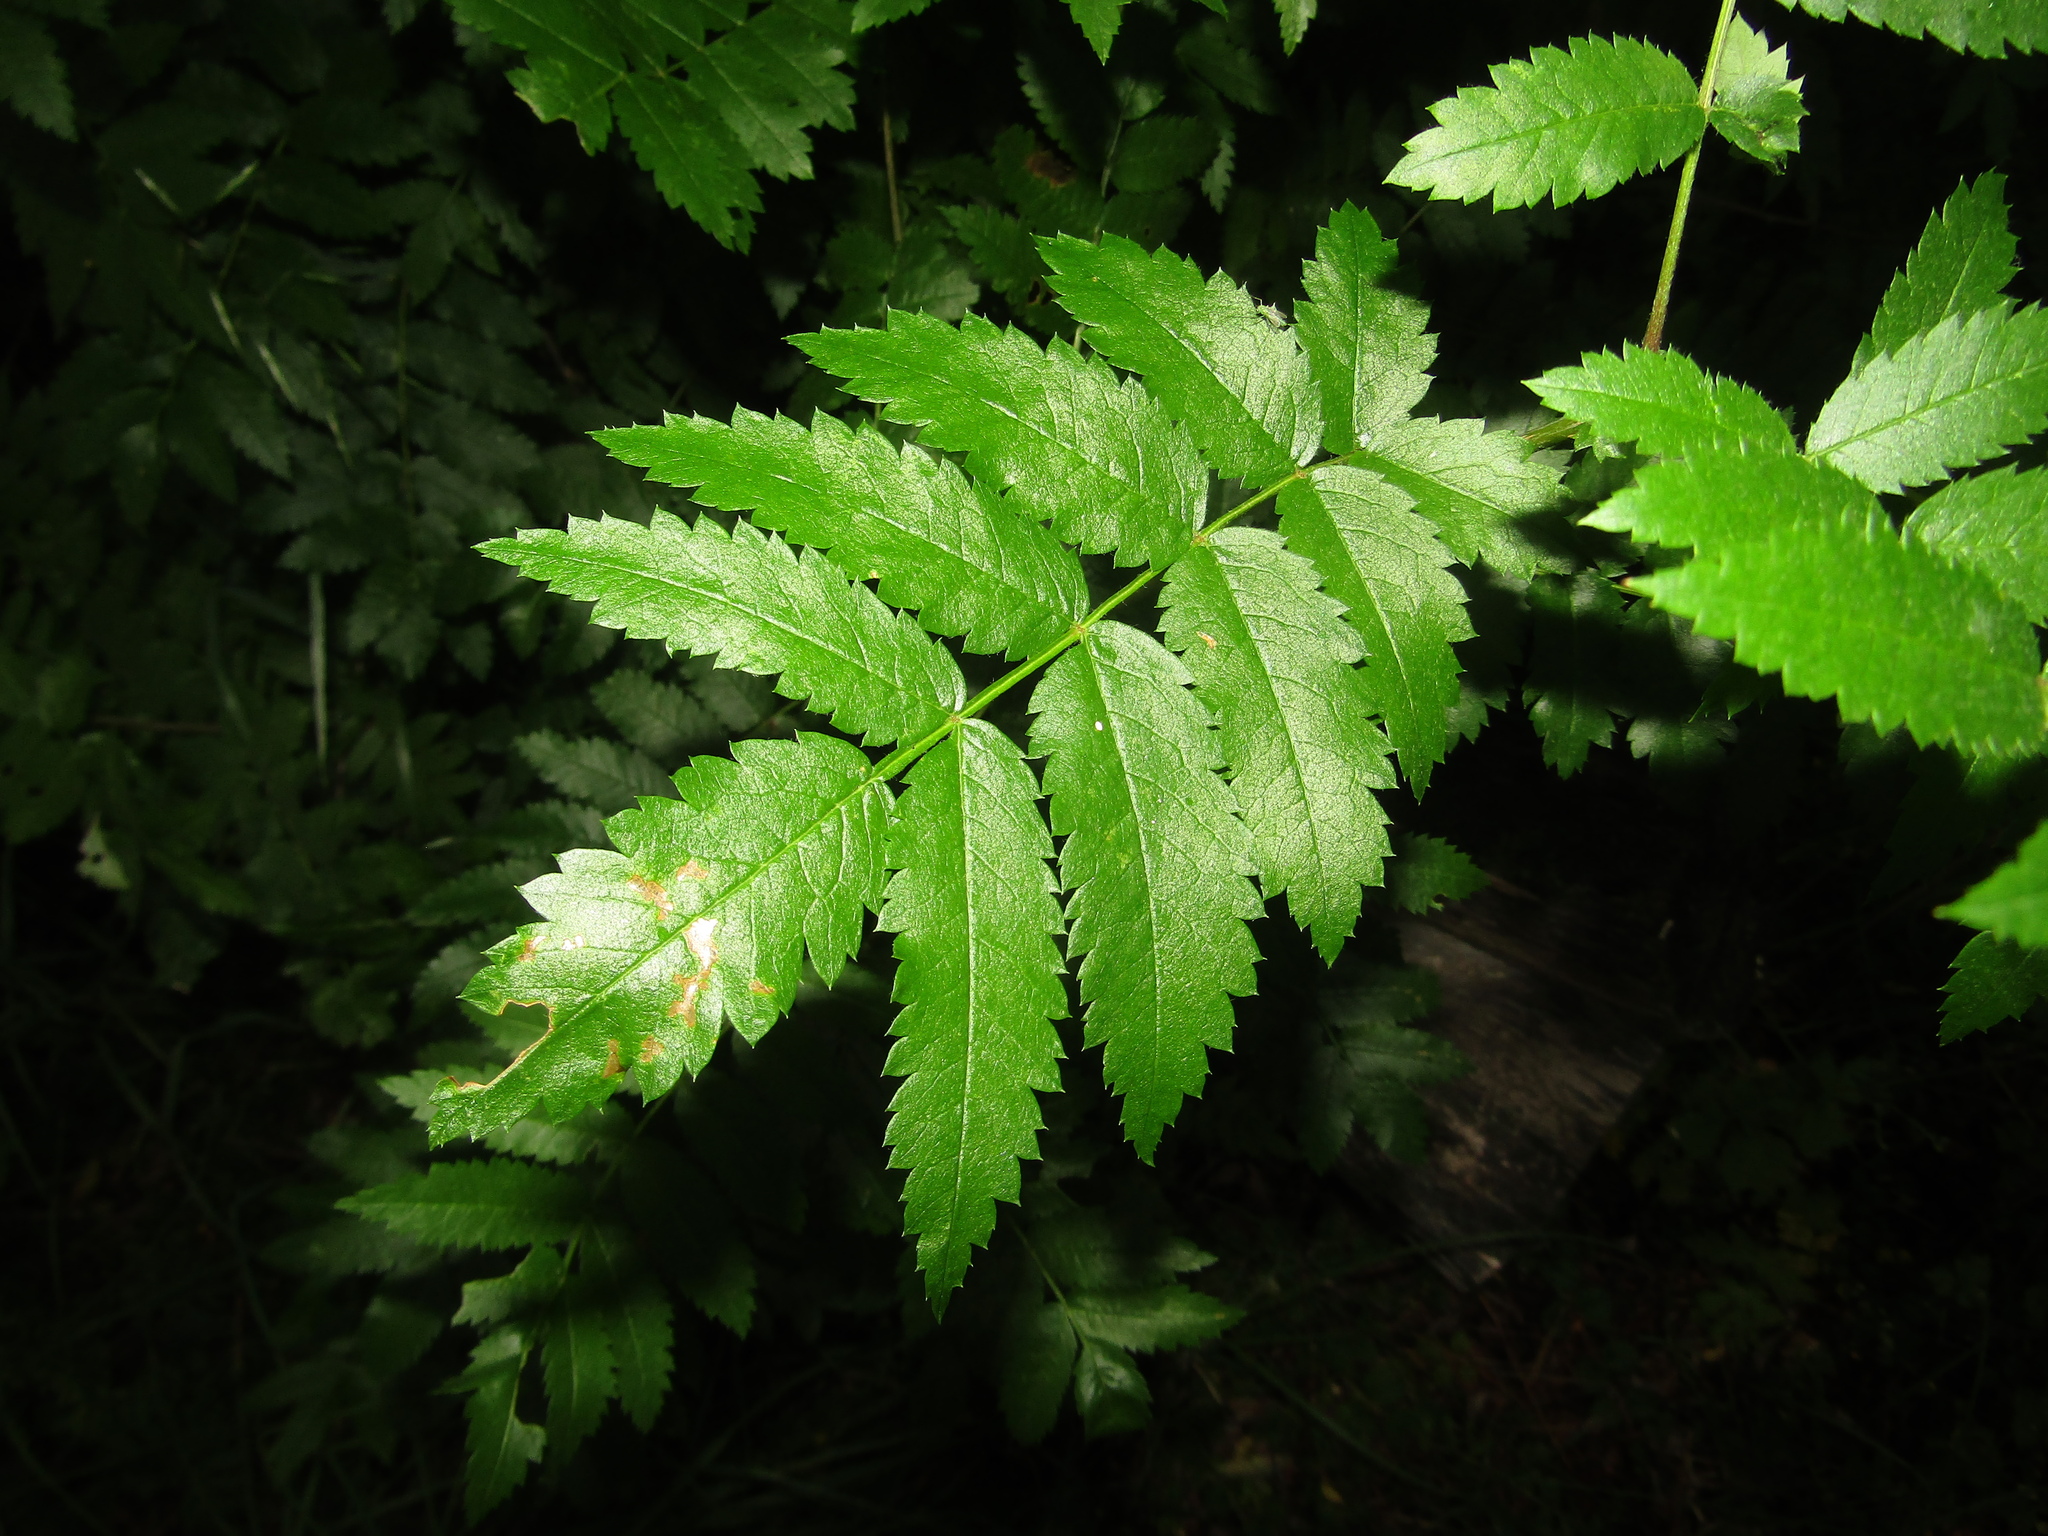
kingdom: Plantae
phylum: Tracheophyta
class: Magnoliopsida
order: Rosales
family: Rosaceae
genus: Sorbus
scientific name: Sorbus aucuparia
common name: Rowan
